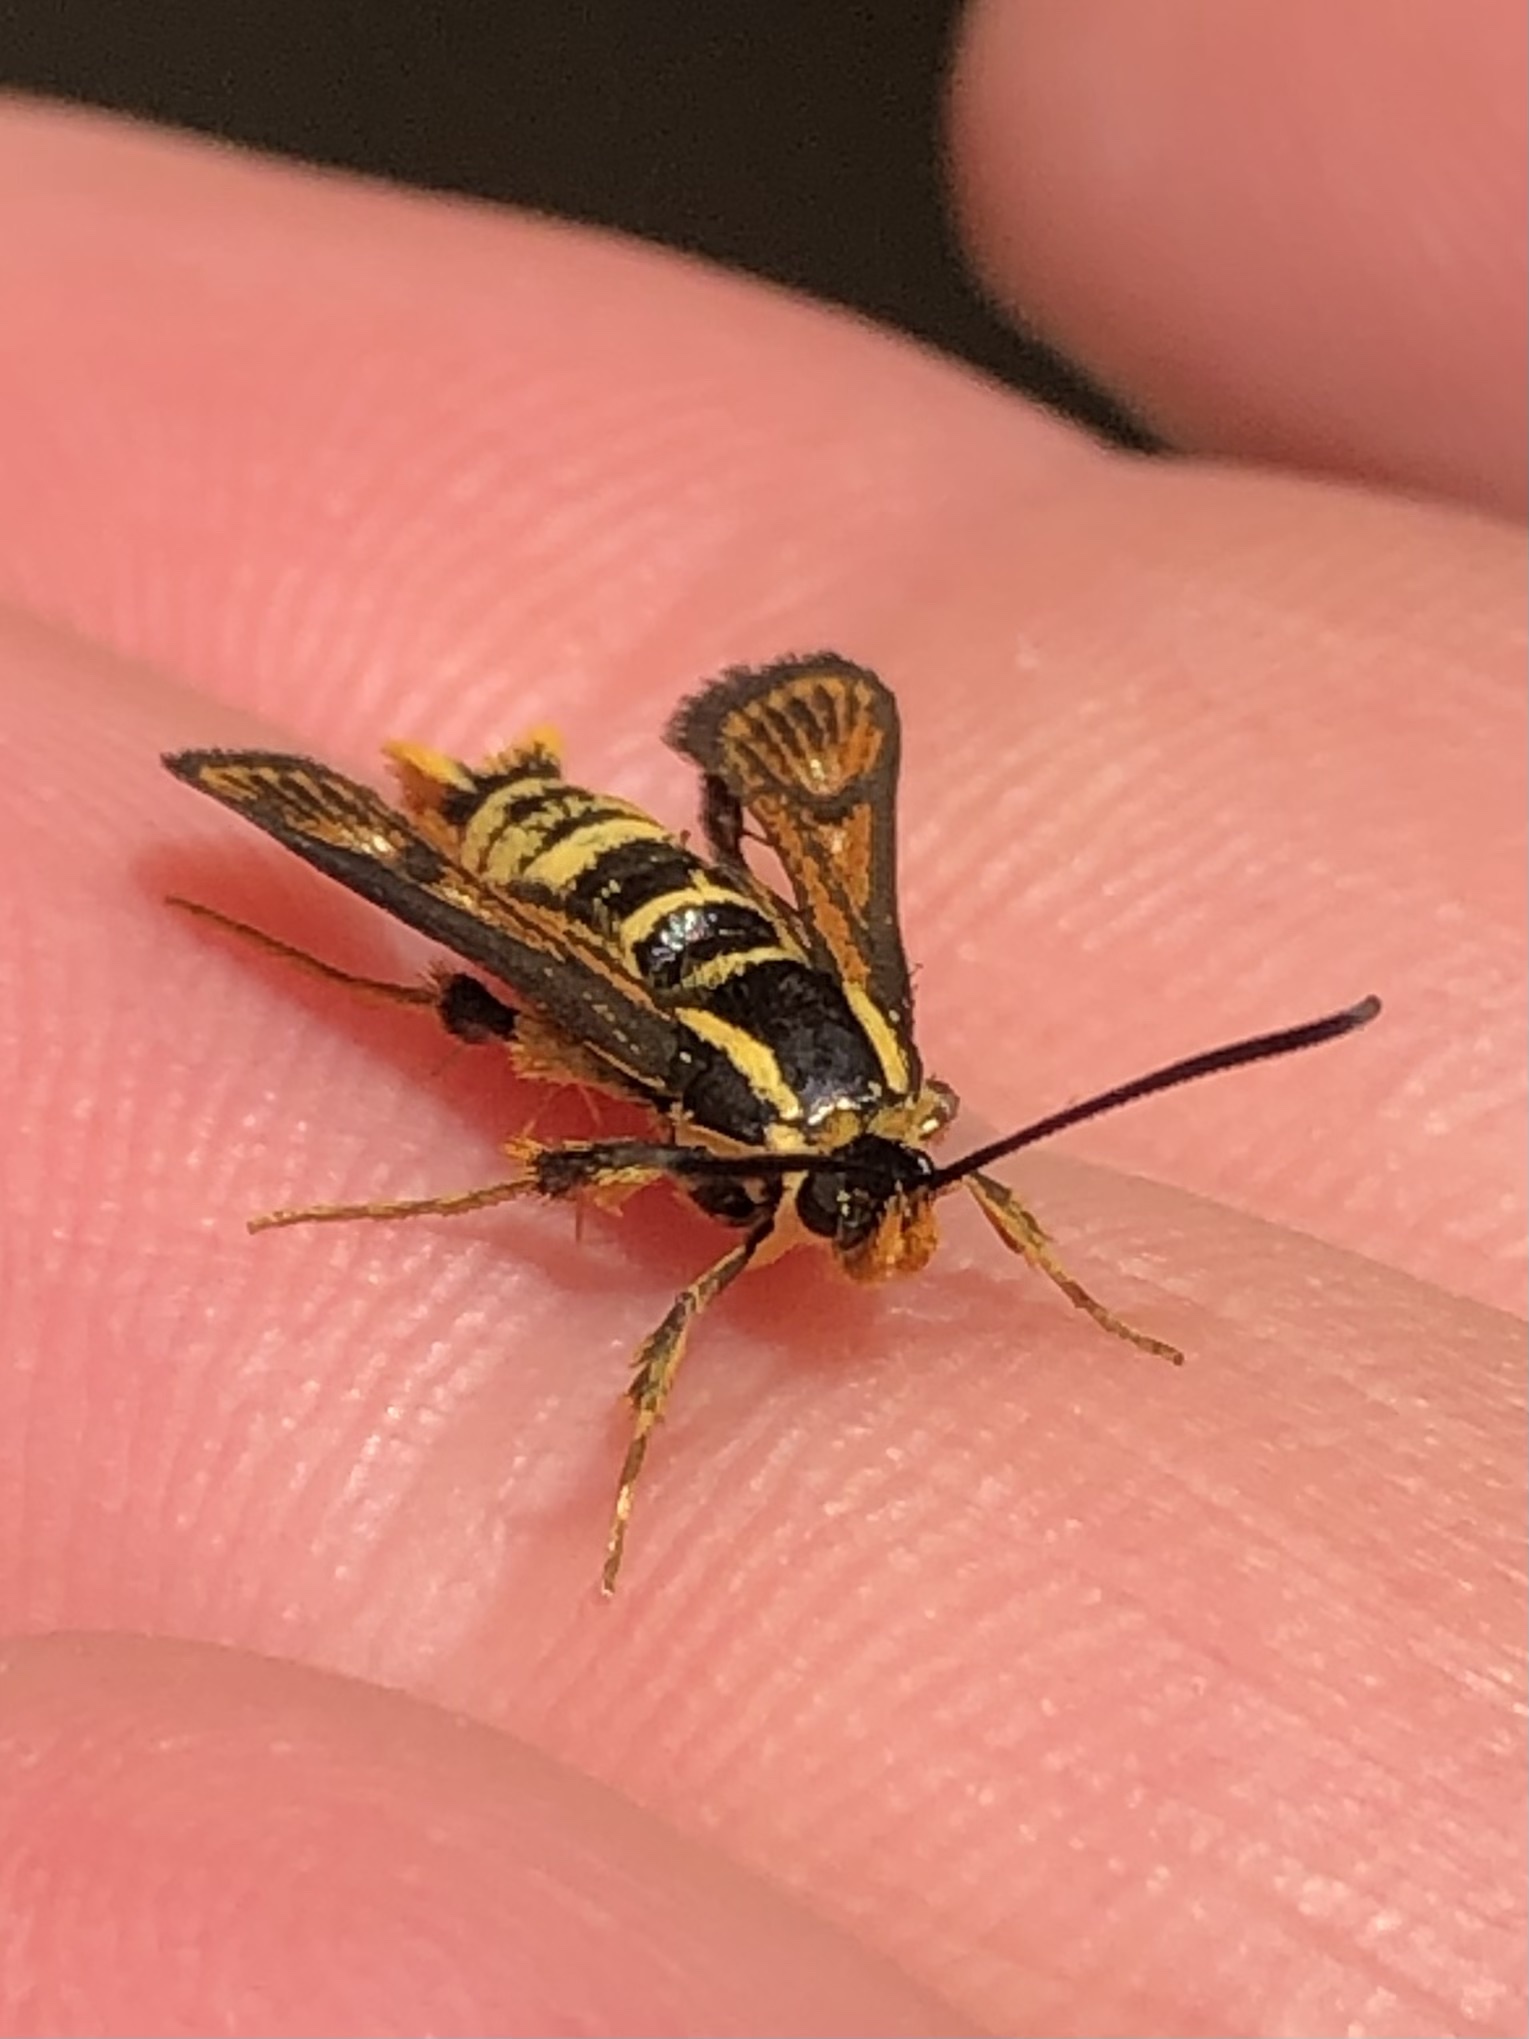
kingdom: Animalia
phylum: Arthropoda
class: Insecta
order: Lepidoptera
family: Sesiidae
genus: Synanthedon
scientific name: Synanthedon bibionipennis
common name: Strawberry crown moth
